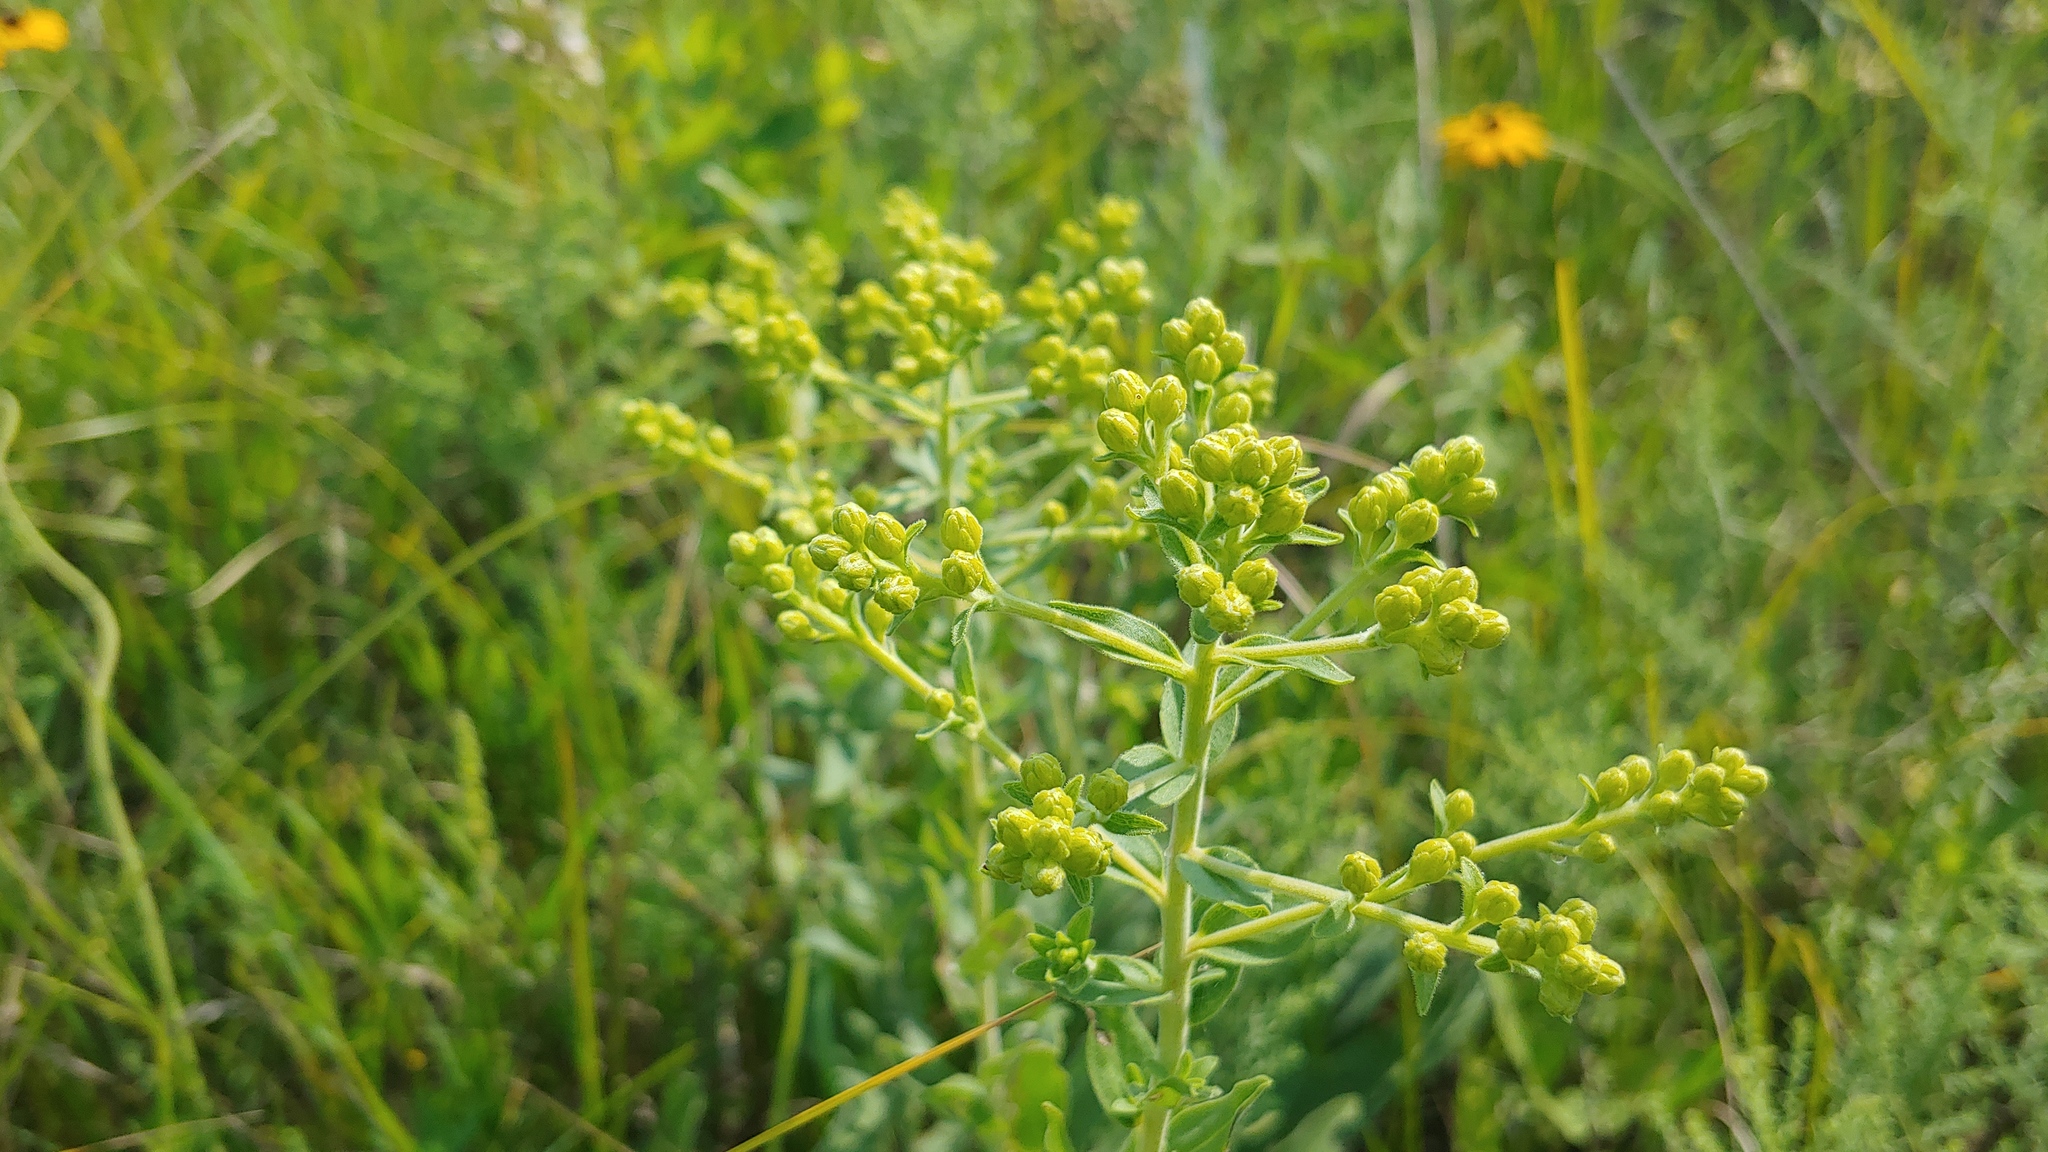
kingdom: Plantae
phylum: Tracheophyta
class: Magnoliopsida
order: Asterales
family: Asteraceae
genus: Solidago
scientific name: Solidago rigida
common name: Rigid goldenrod
